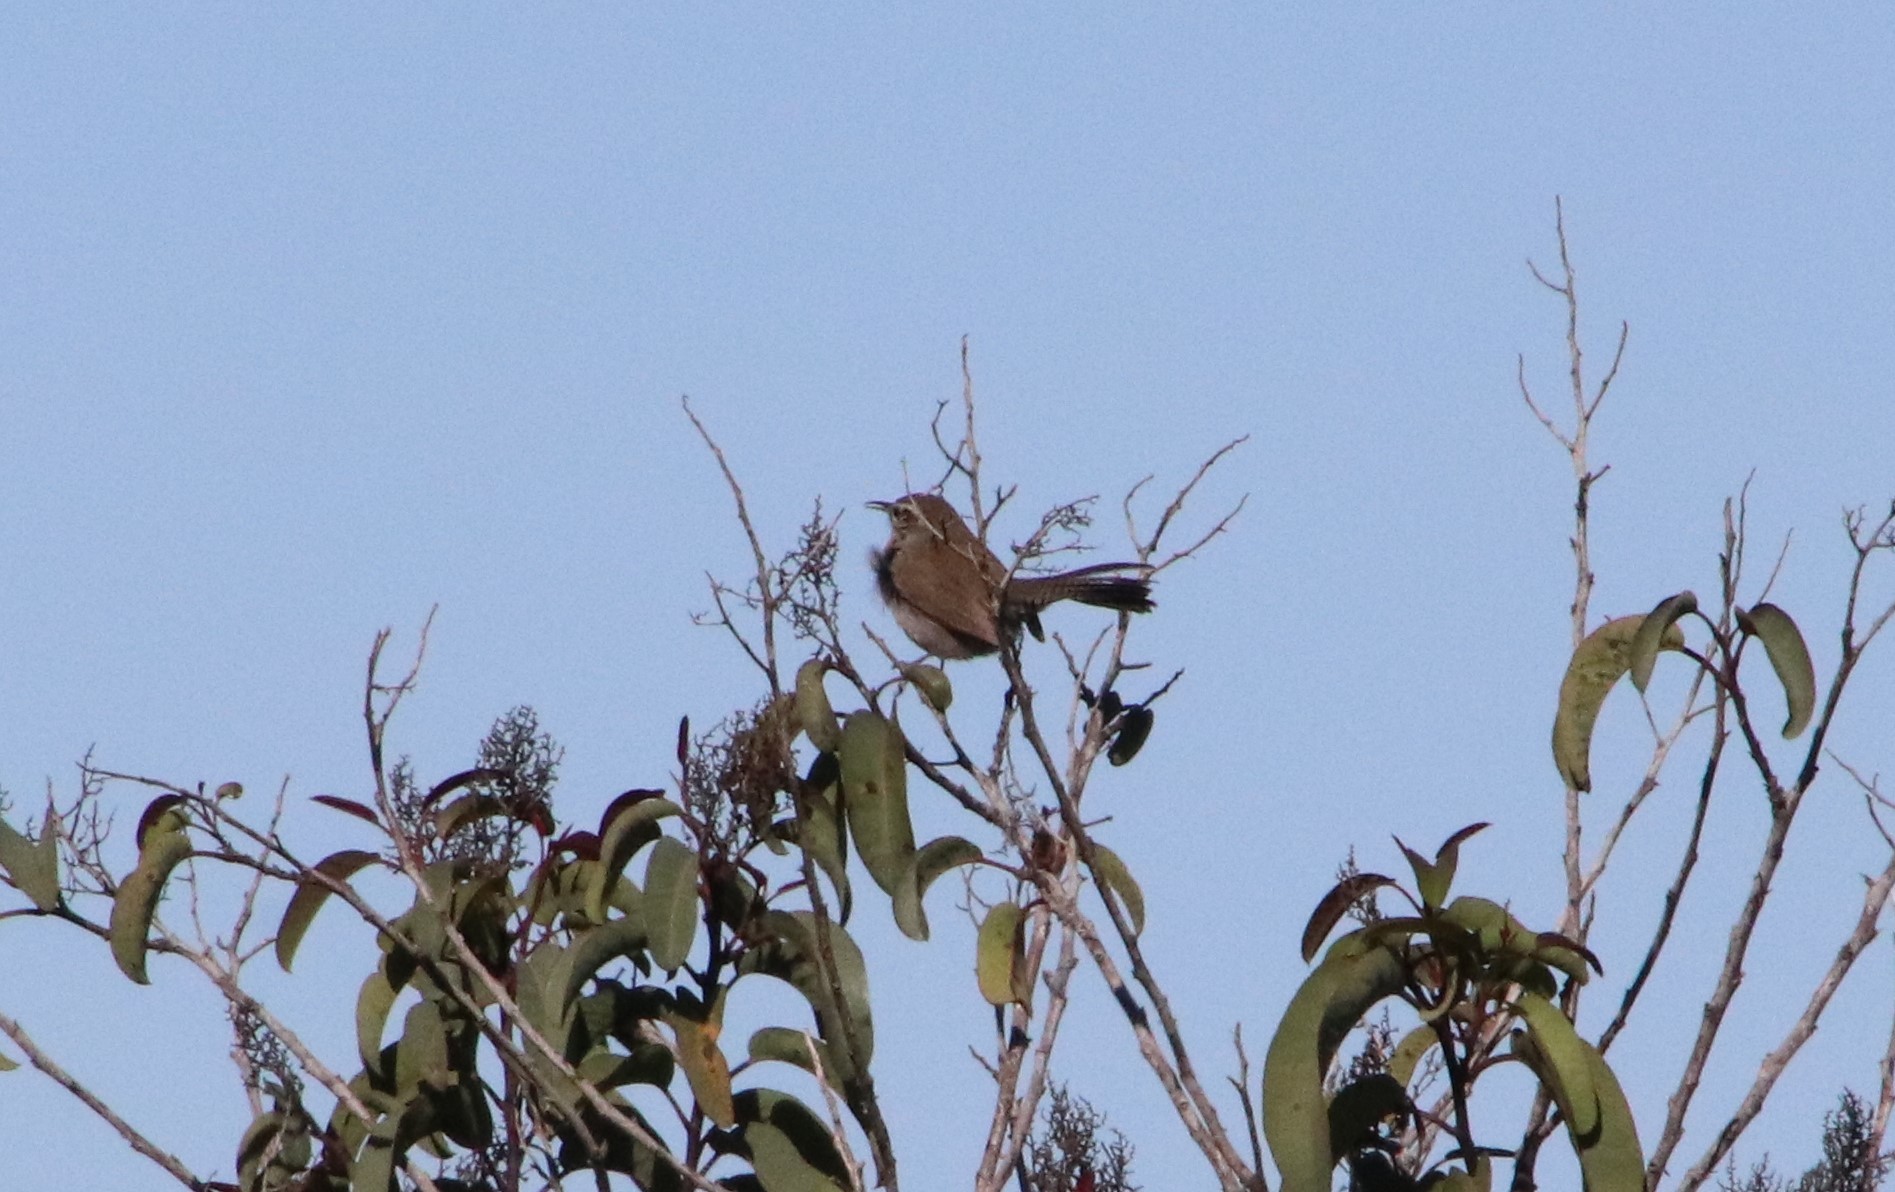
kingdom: Animalia
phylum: Chordata
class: Aves
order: Passeriformes
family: Troglodytidae
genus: Thryomanes
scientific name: Thryomanes bewickii
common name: Bewick's wren
